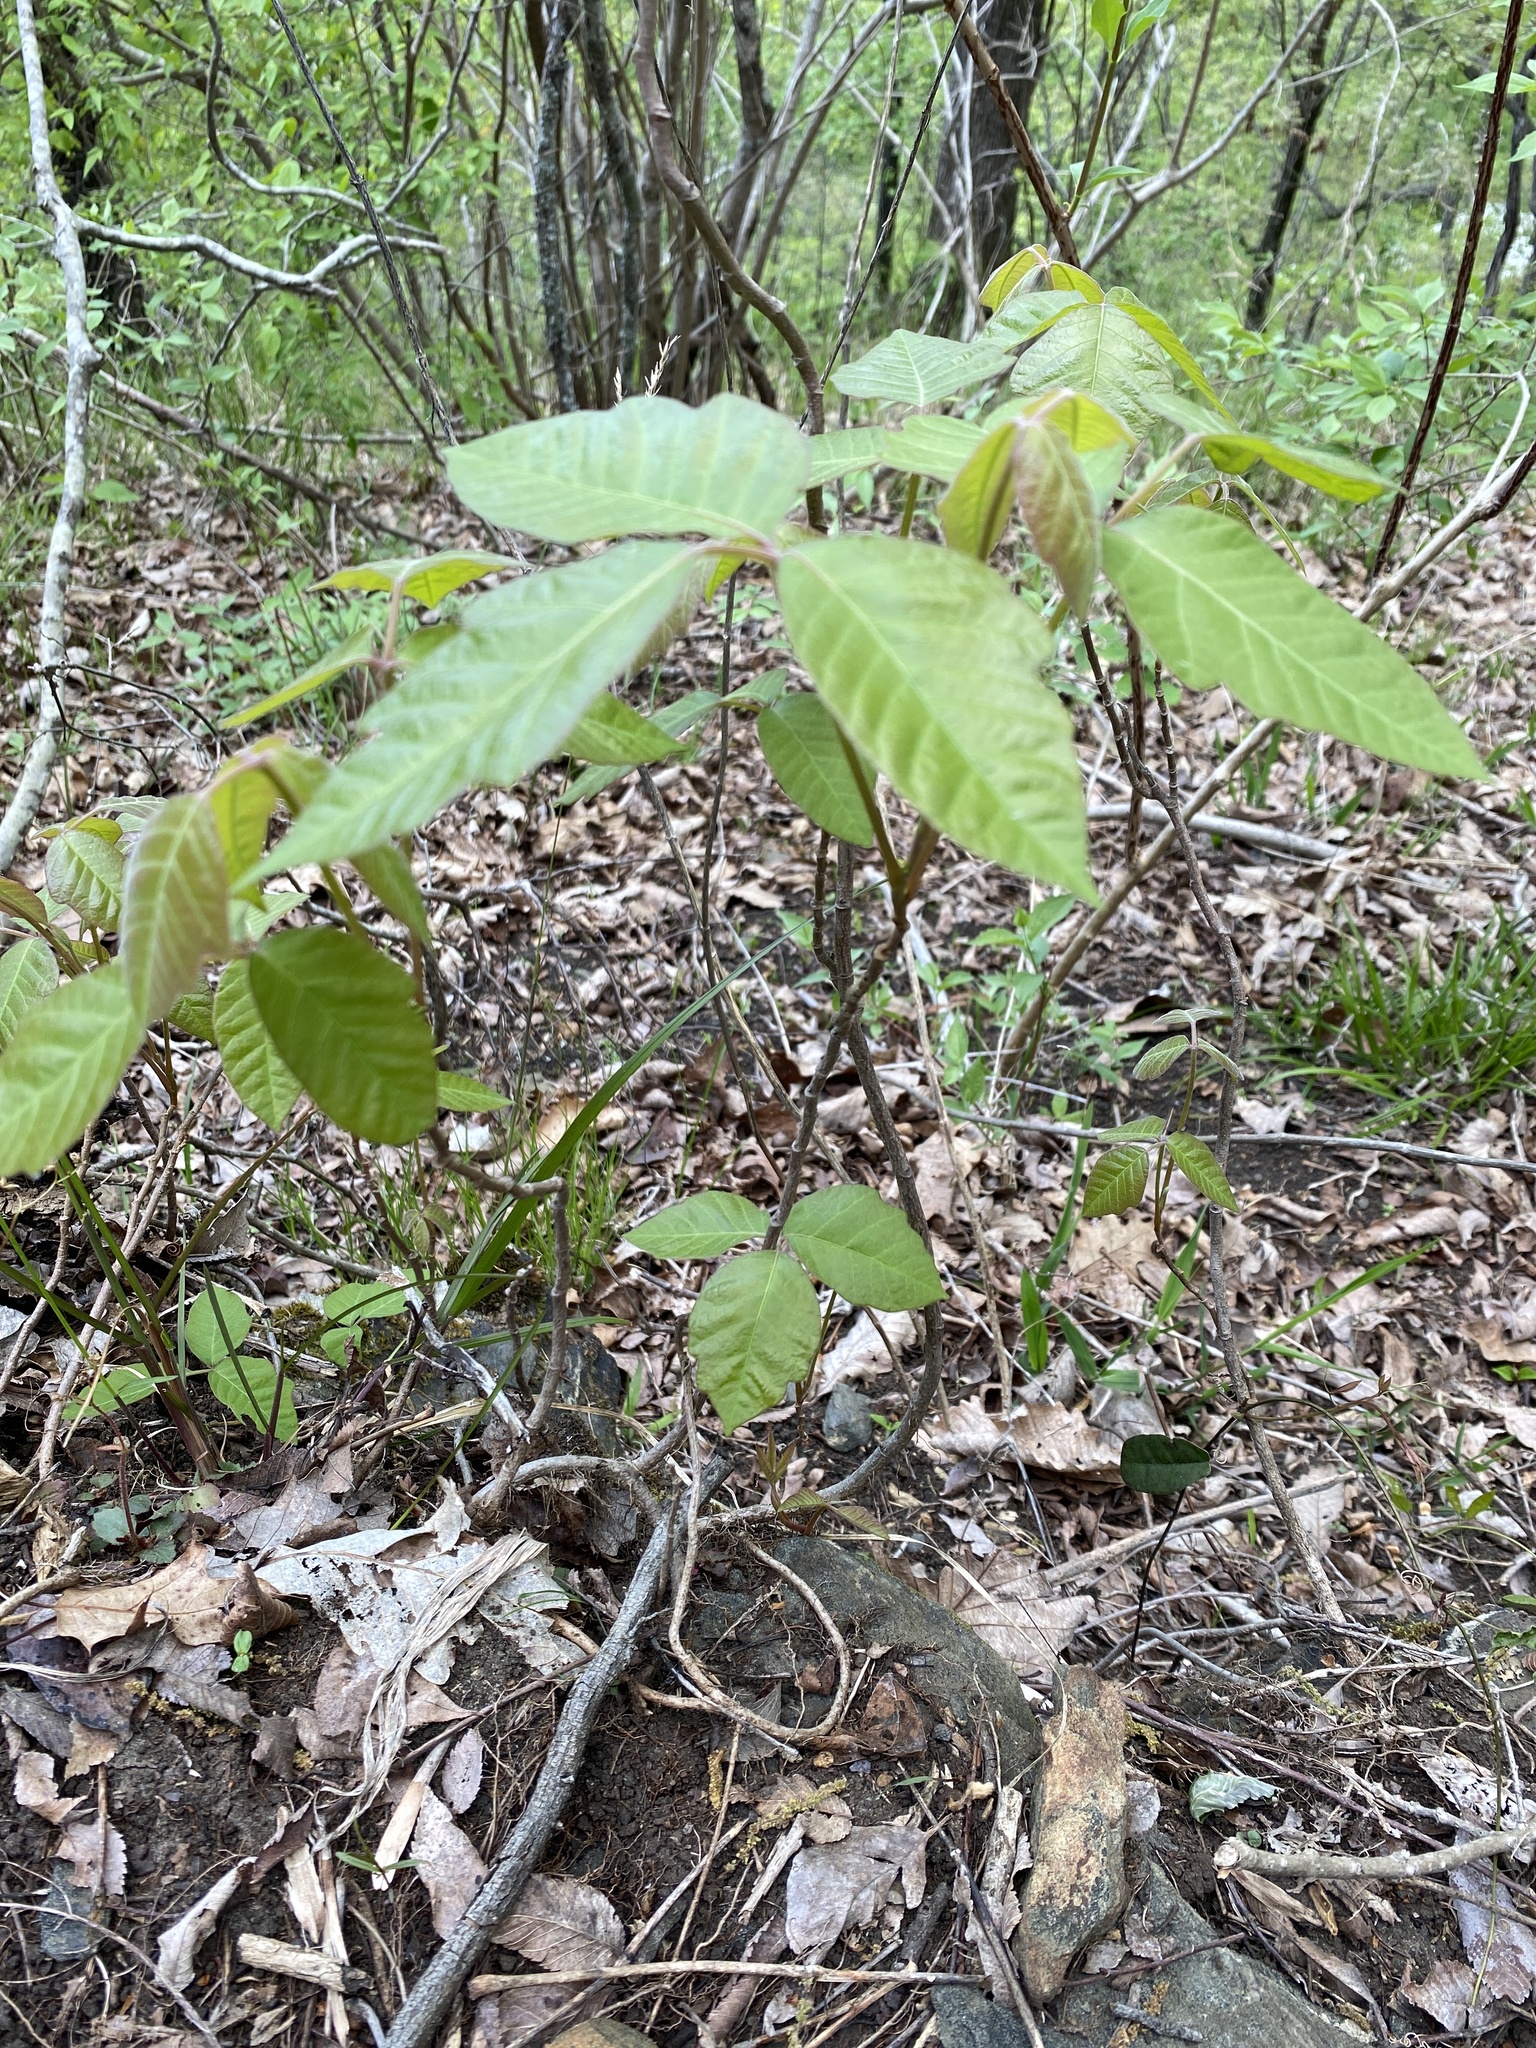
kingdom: Plantae
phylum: Tracheophyta
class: Magnoliopsida
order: Sapindales
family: Anacardiaceae
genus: Toxicodendron
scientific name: Toxicodendron radicans
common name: Poison ivy
